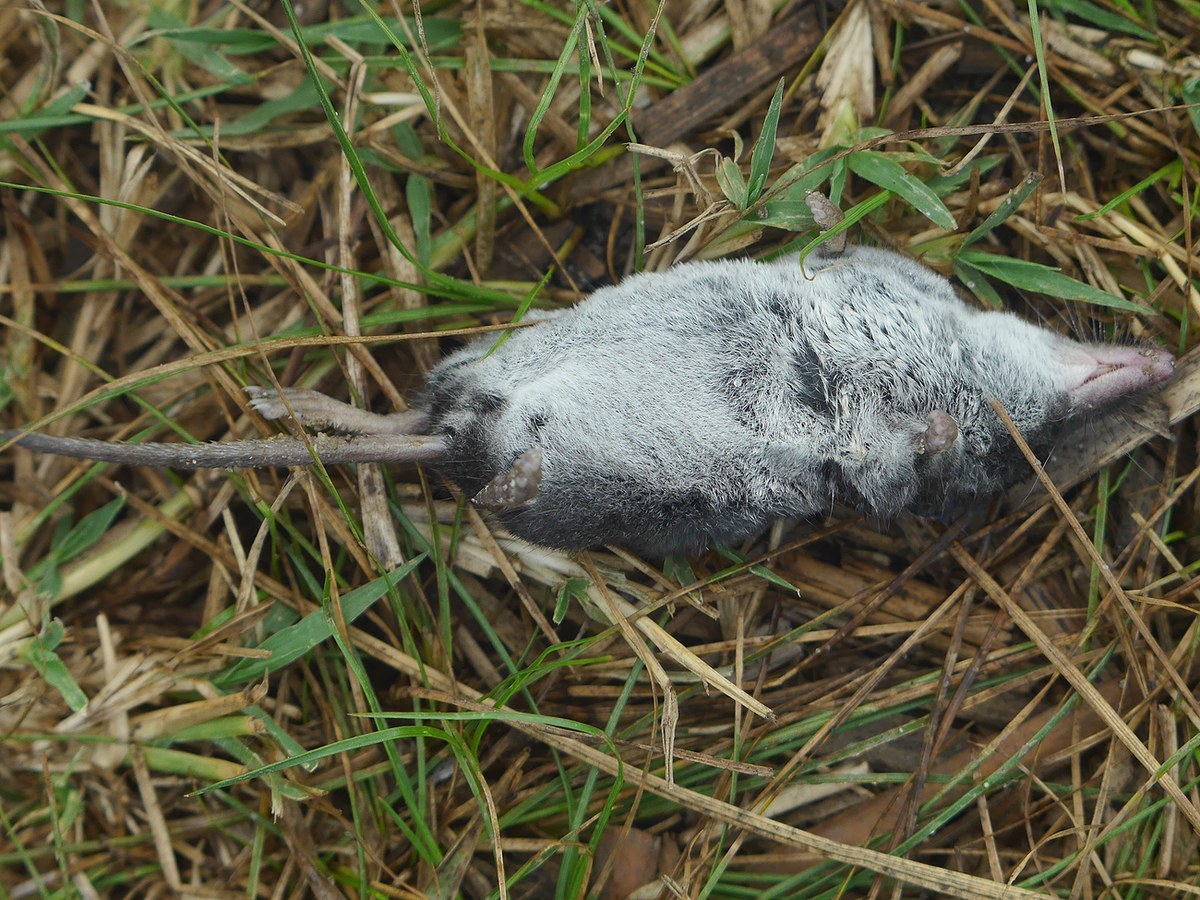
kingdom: Animalia
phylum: Chordata
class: Mammalia
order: Soricomorpha
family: Soricidae
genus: Neomys
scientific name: Neomys milleri
